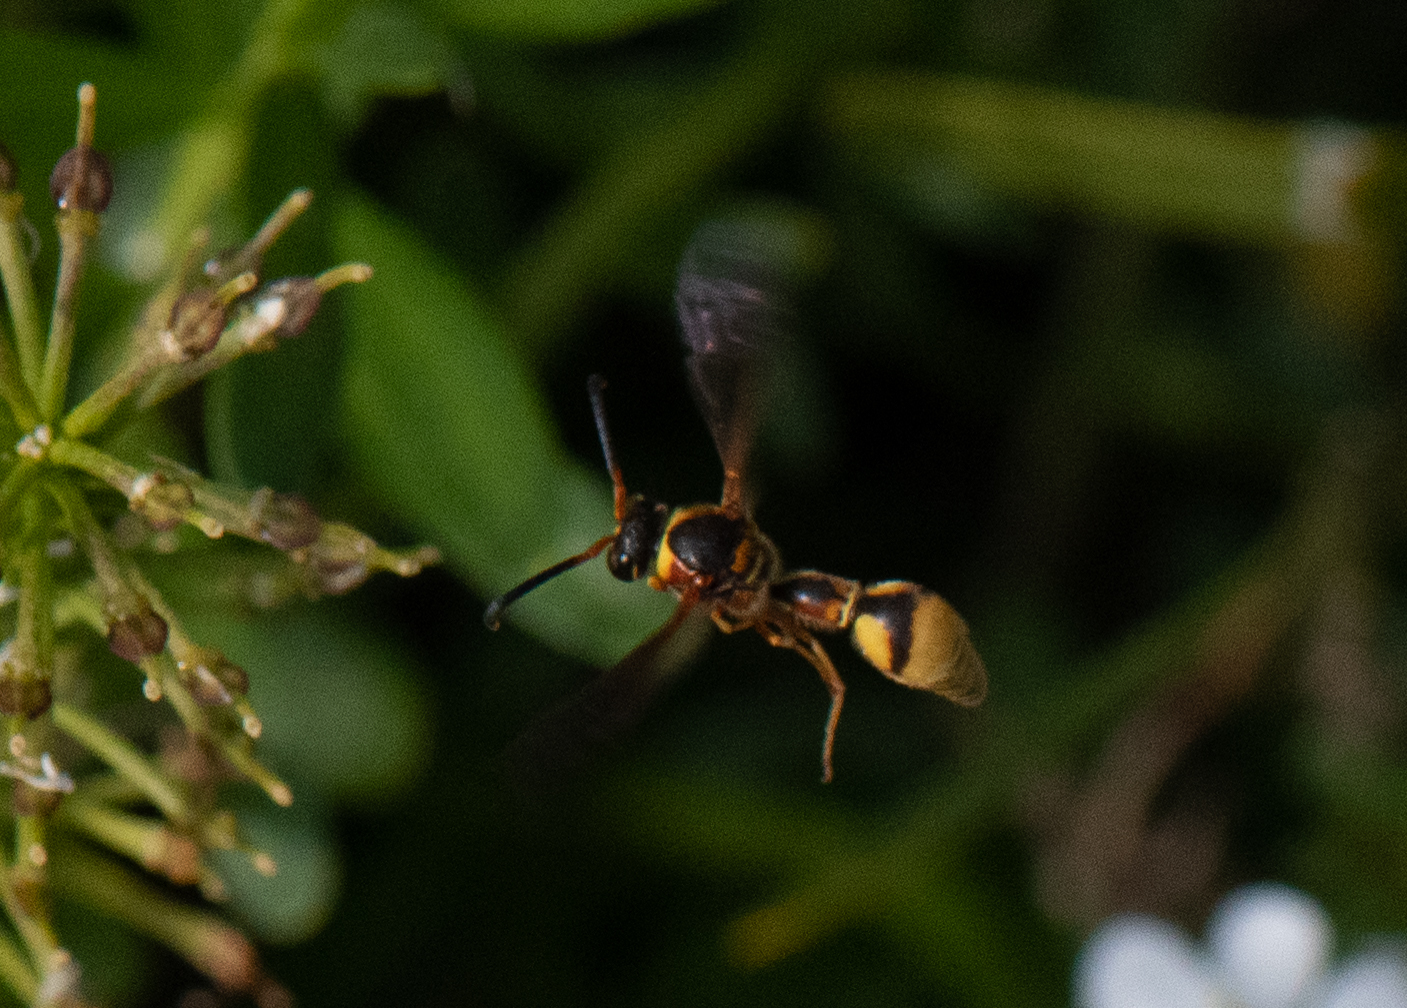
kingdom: Animalia
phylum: Arthropoda
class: Insecta
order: Hymenoptera
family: Vespidae
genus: Eumenes
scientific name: Eumenes bollii
